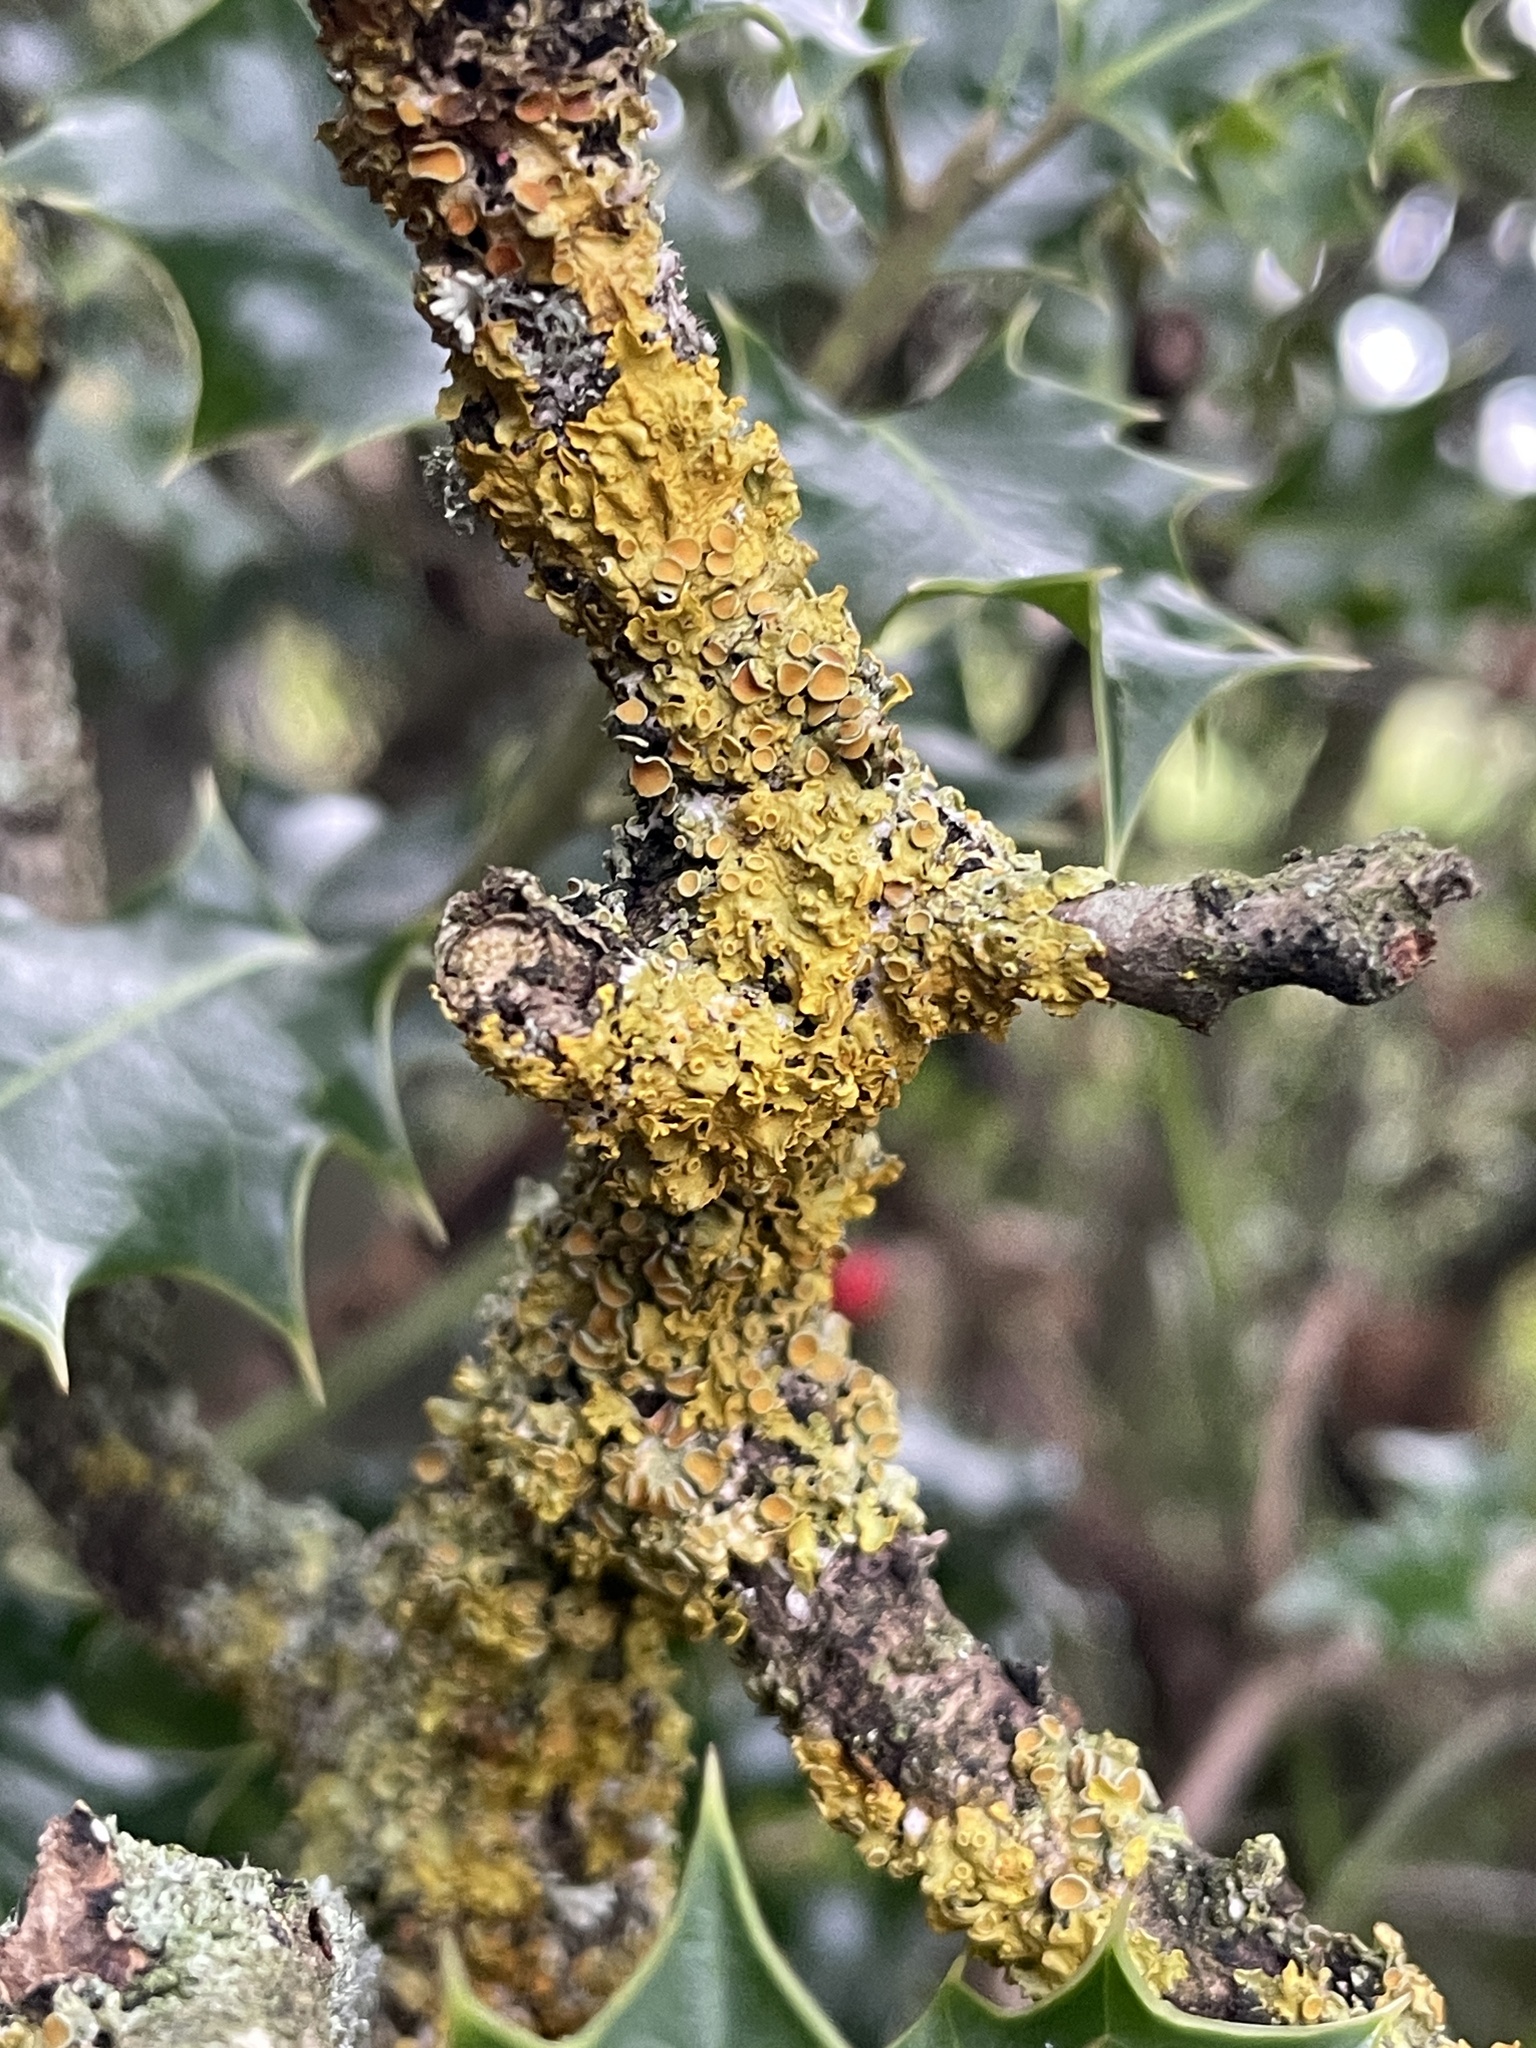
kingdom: Fungi
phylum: Ascomycota
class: Lecanoromycetes
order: Teloschistales
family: Teloschistaceae
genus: Xanthoria
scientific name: Xanthoria parietina
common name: Common orange lichen
